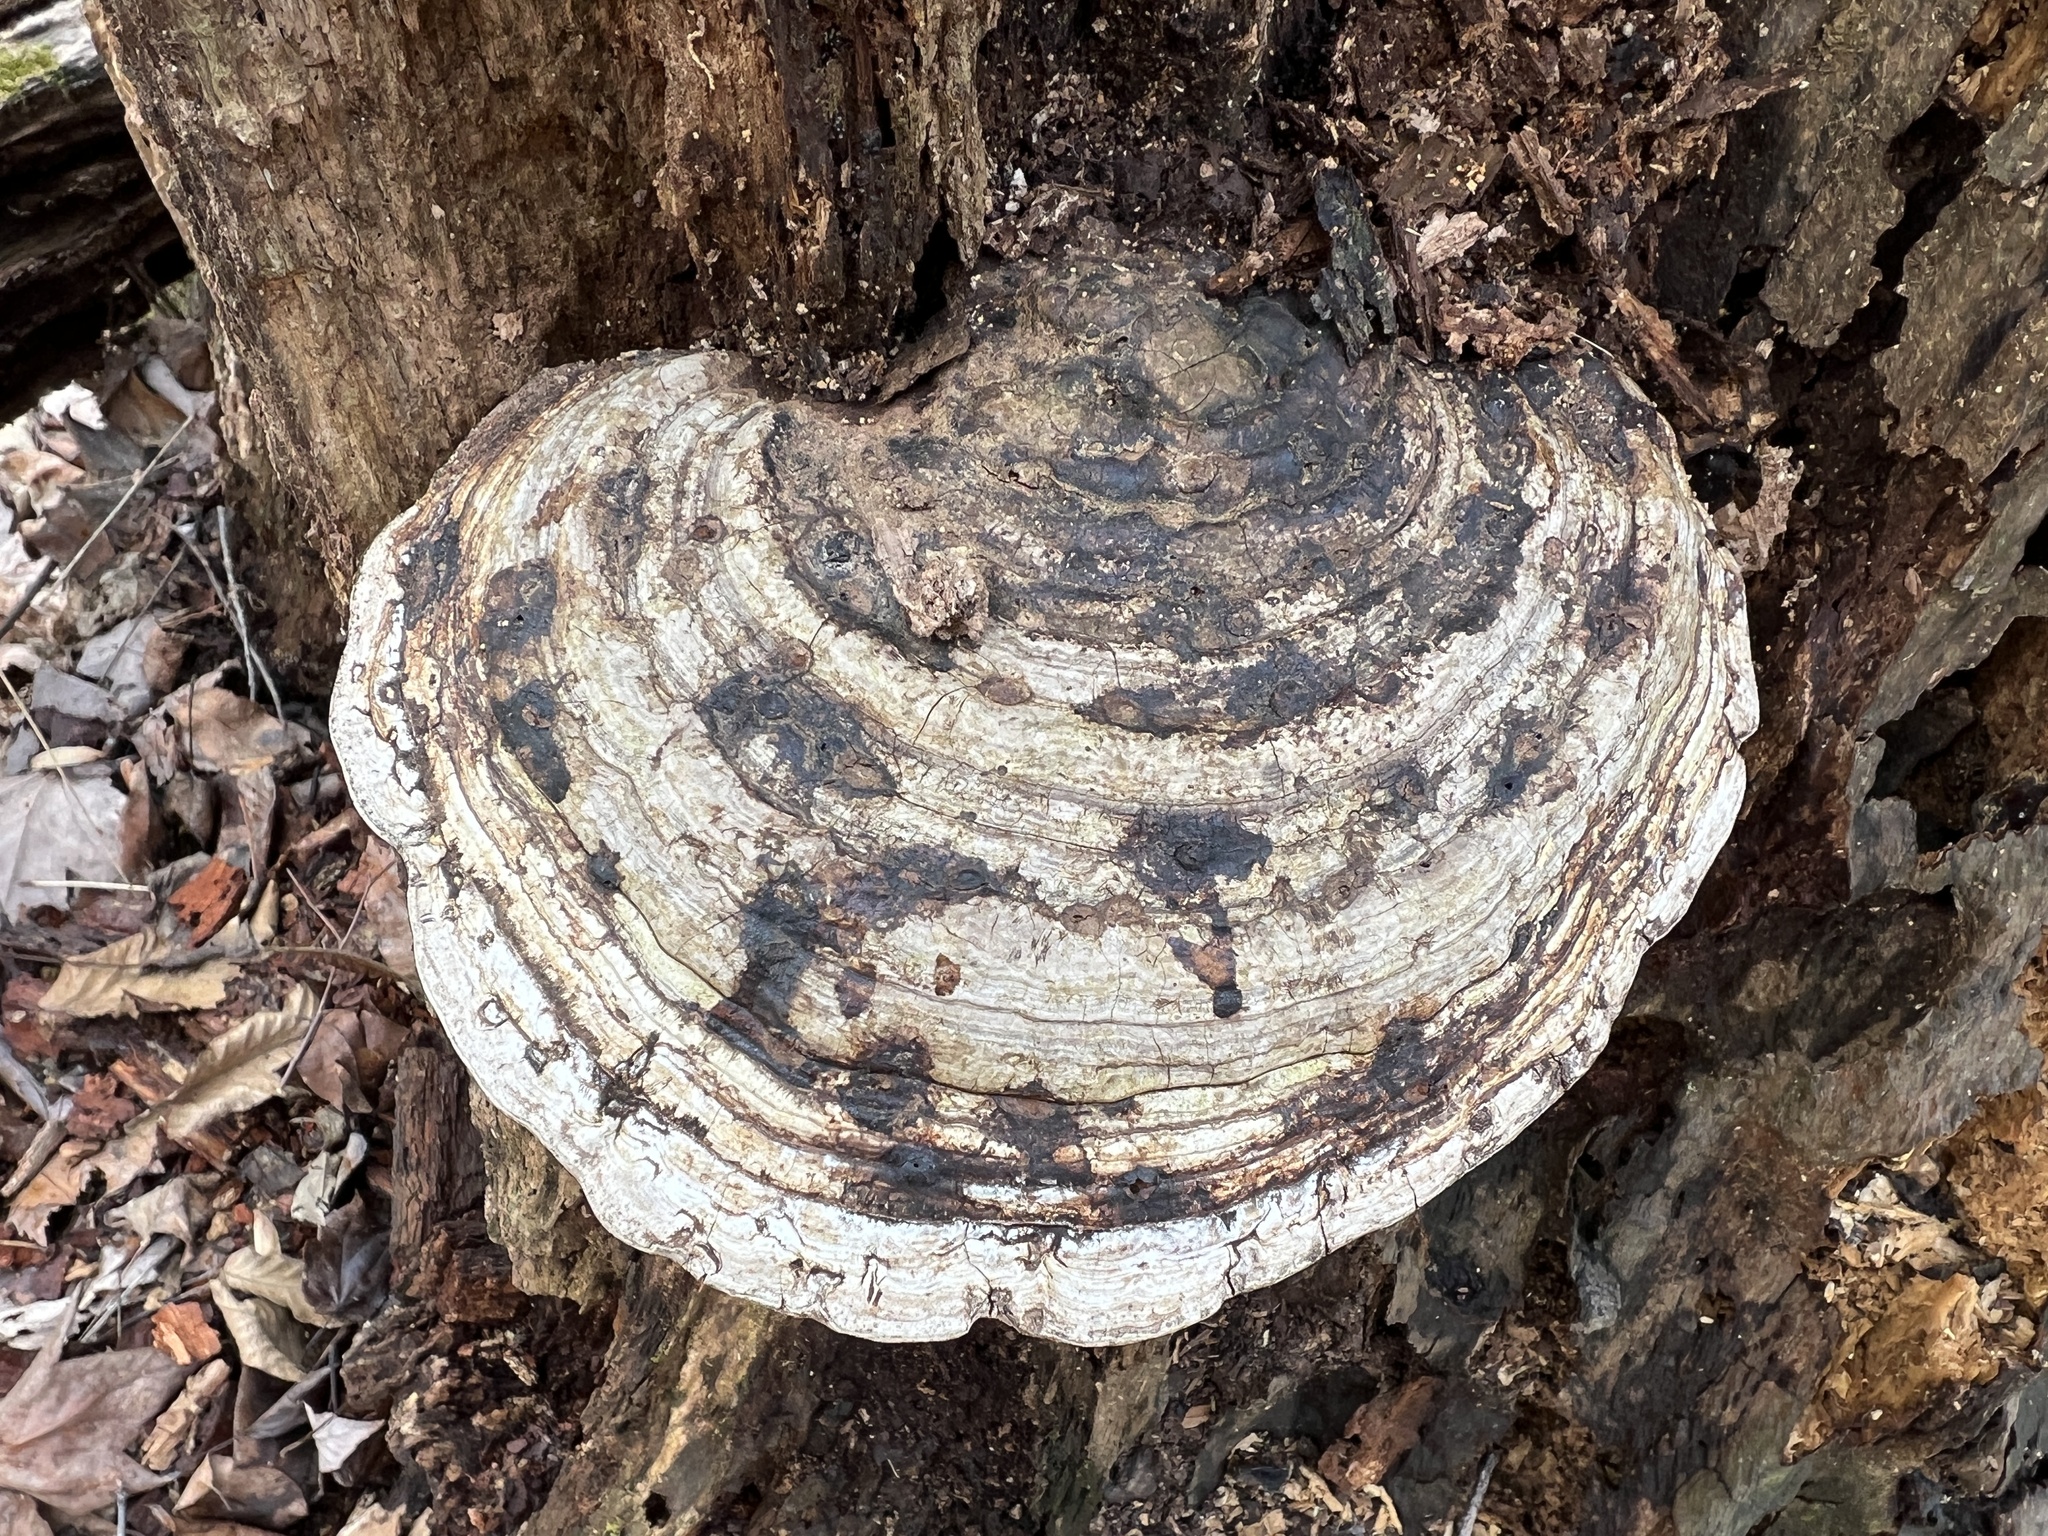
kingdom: Fungi
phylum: Basidiomycota
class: Agaricomycetes
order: Polyporales
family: Polyporaceae
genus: Ganoderma
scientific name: Ganoderma applanatum
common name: Artist's bracket
